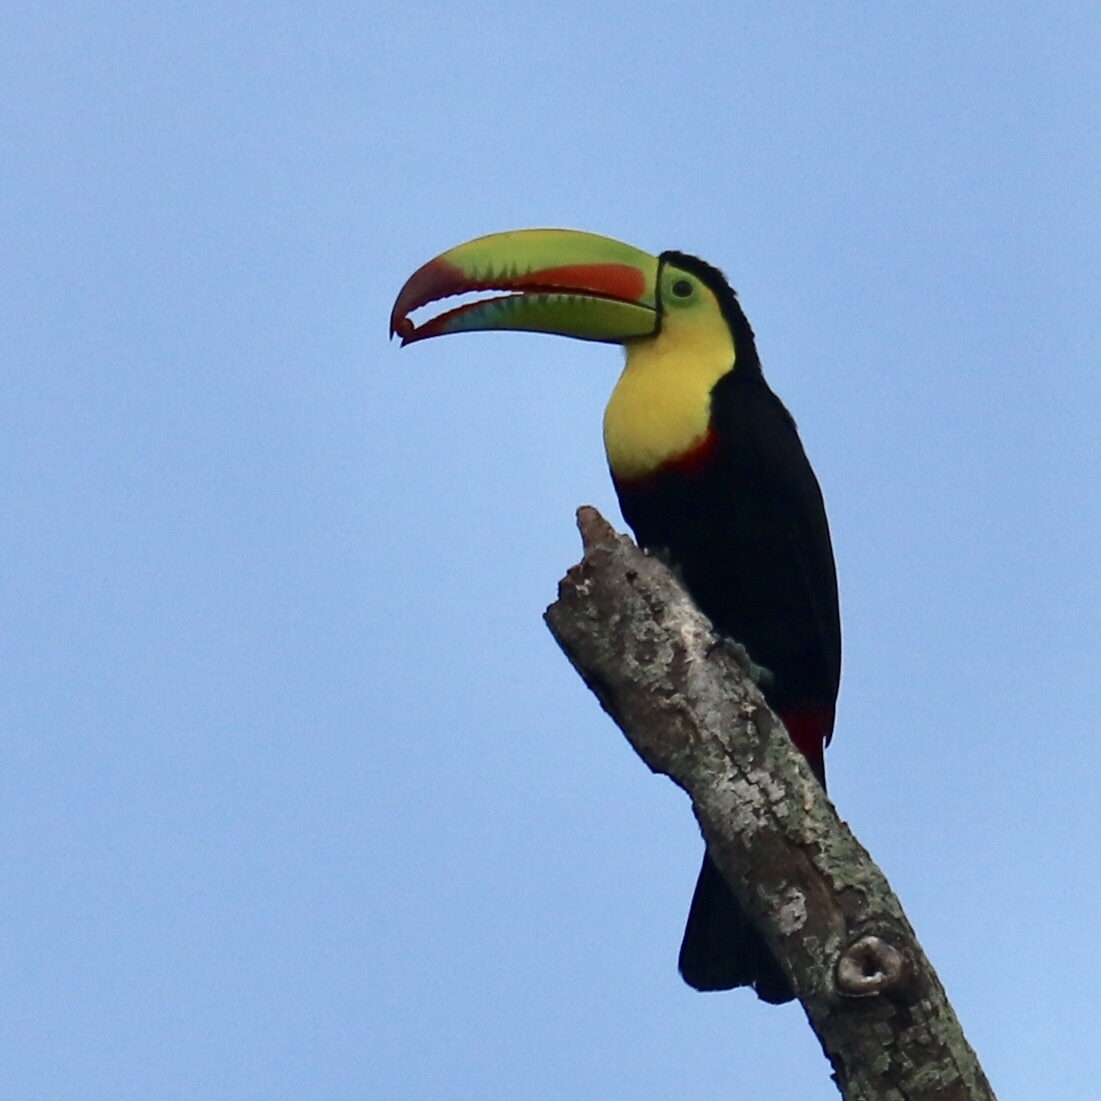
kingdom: Animalia
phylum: Chordata
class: Aves
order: Piciformes
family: Ramphastidae
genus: Ramphastos
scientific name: Ramphastos sulfuratus
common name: Keel-billed toucan
